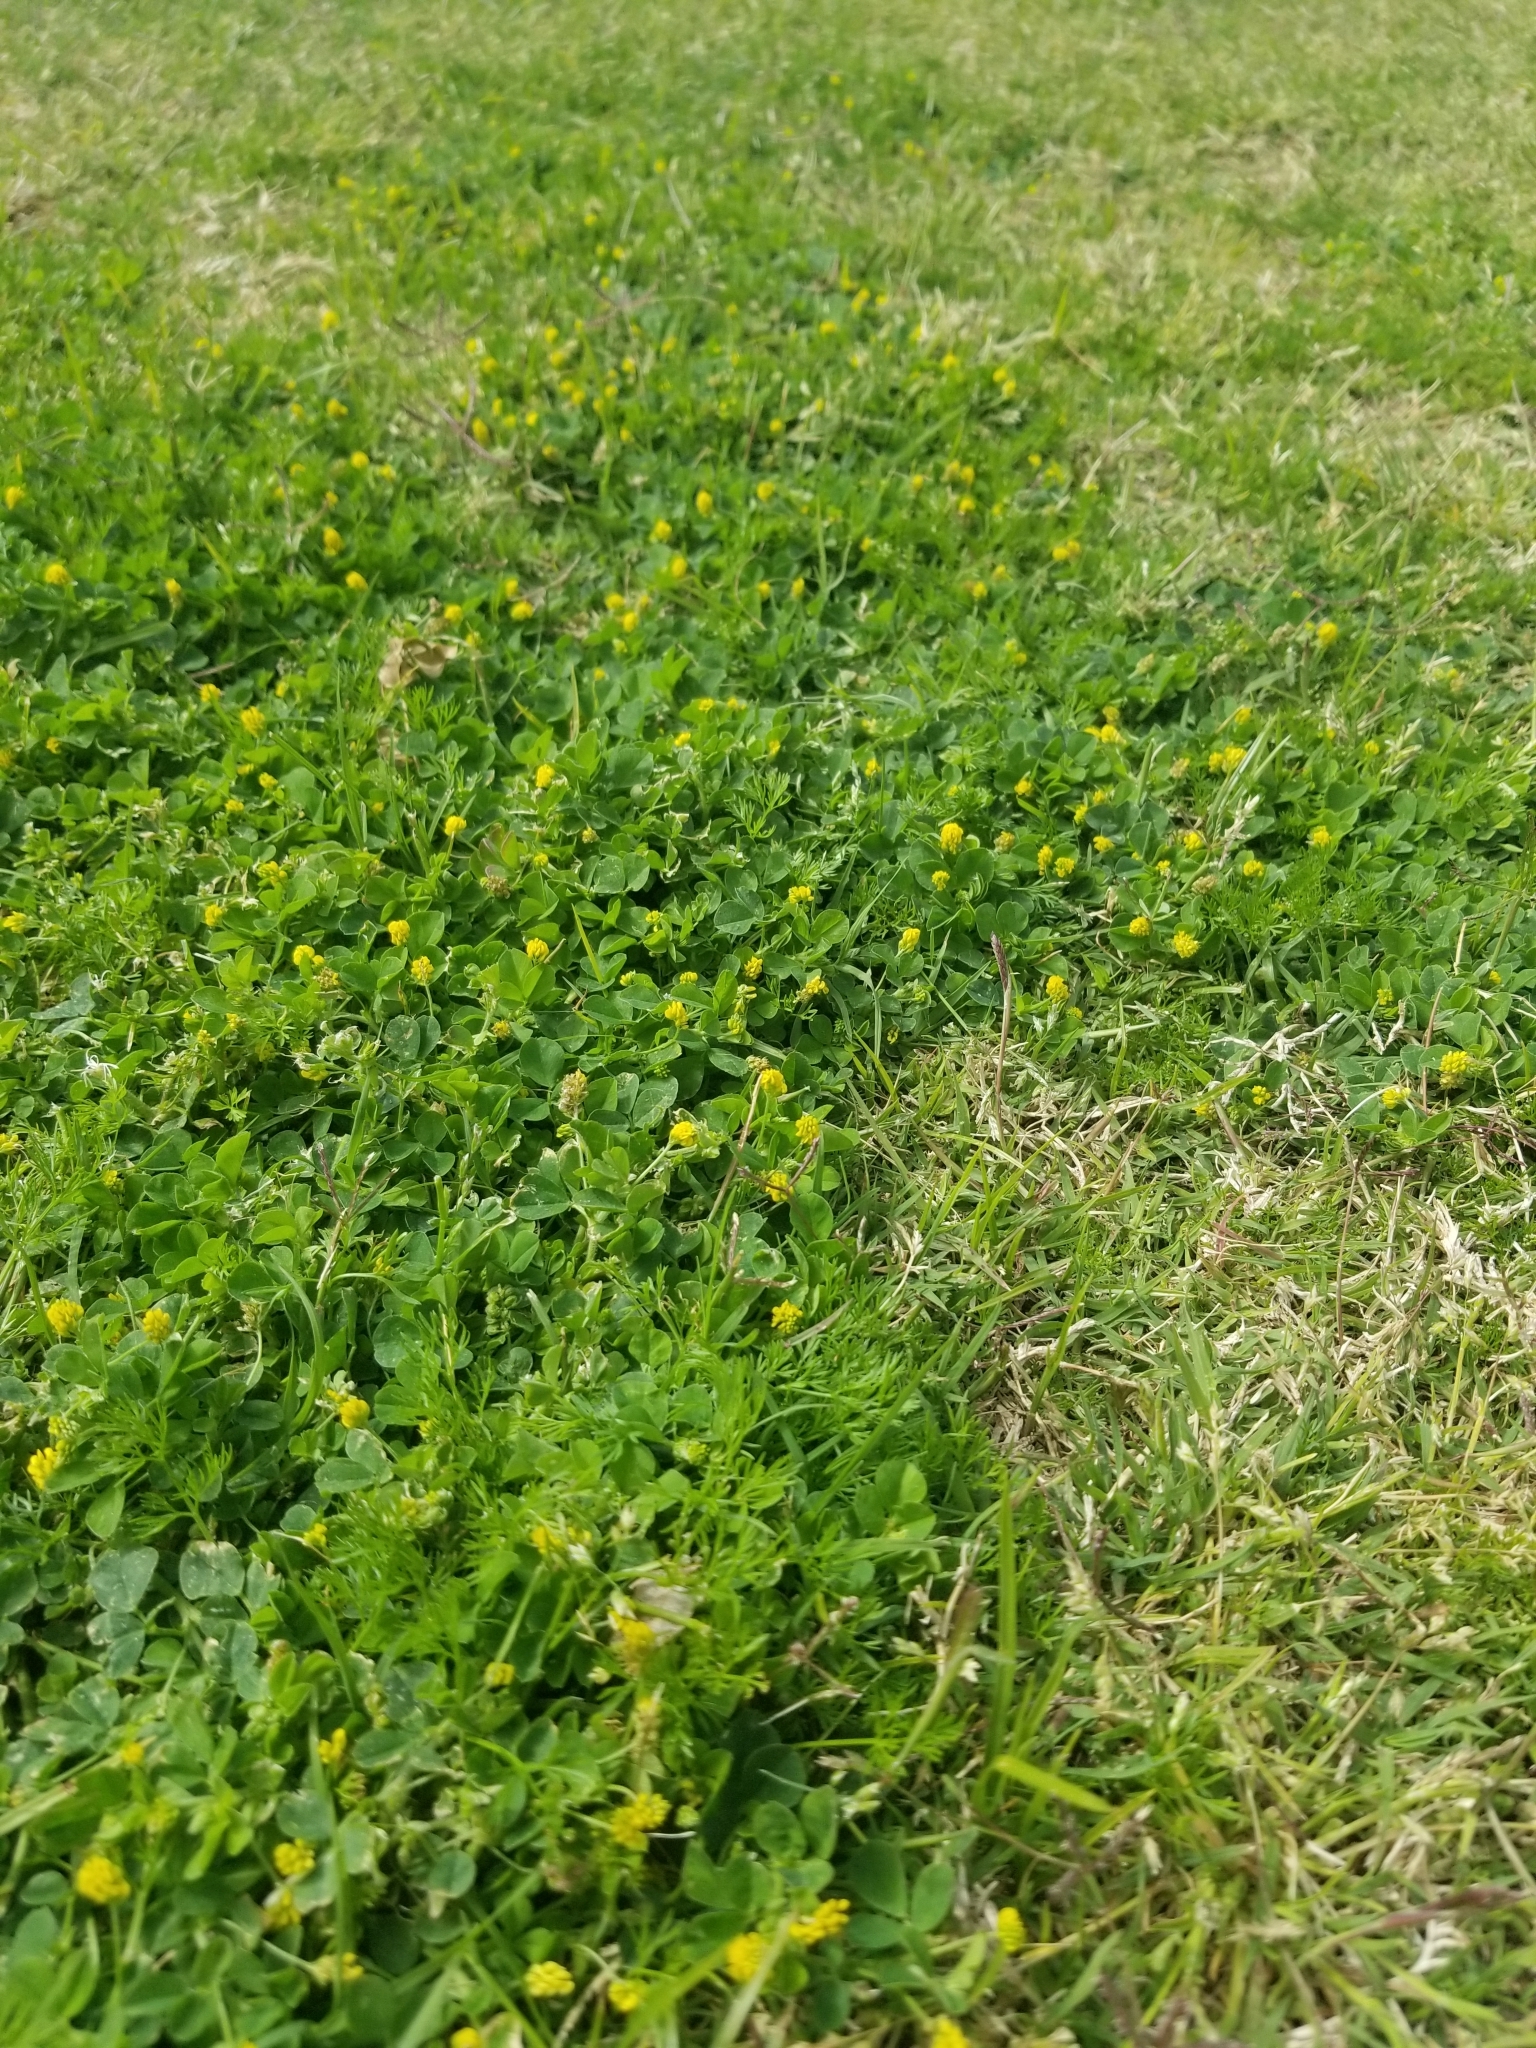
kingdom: Plantae
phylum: Tracheophyta
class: Magnoliopsida
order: Fabales
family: Fabaceae
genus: Medicago
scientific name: Medicago lupulina
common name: Black medick
